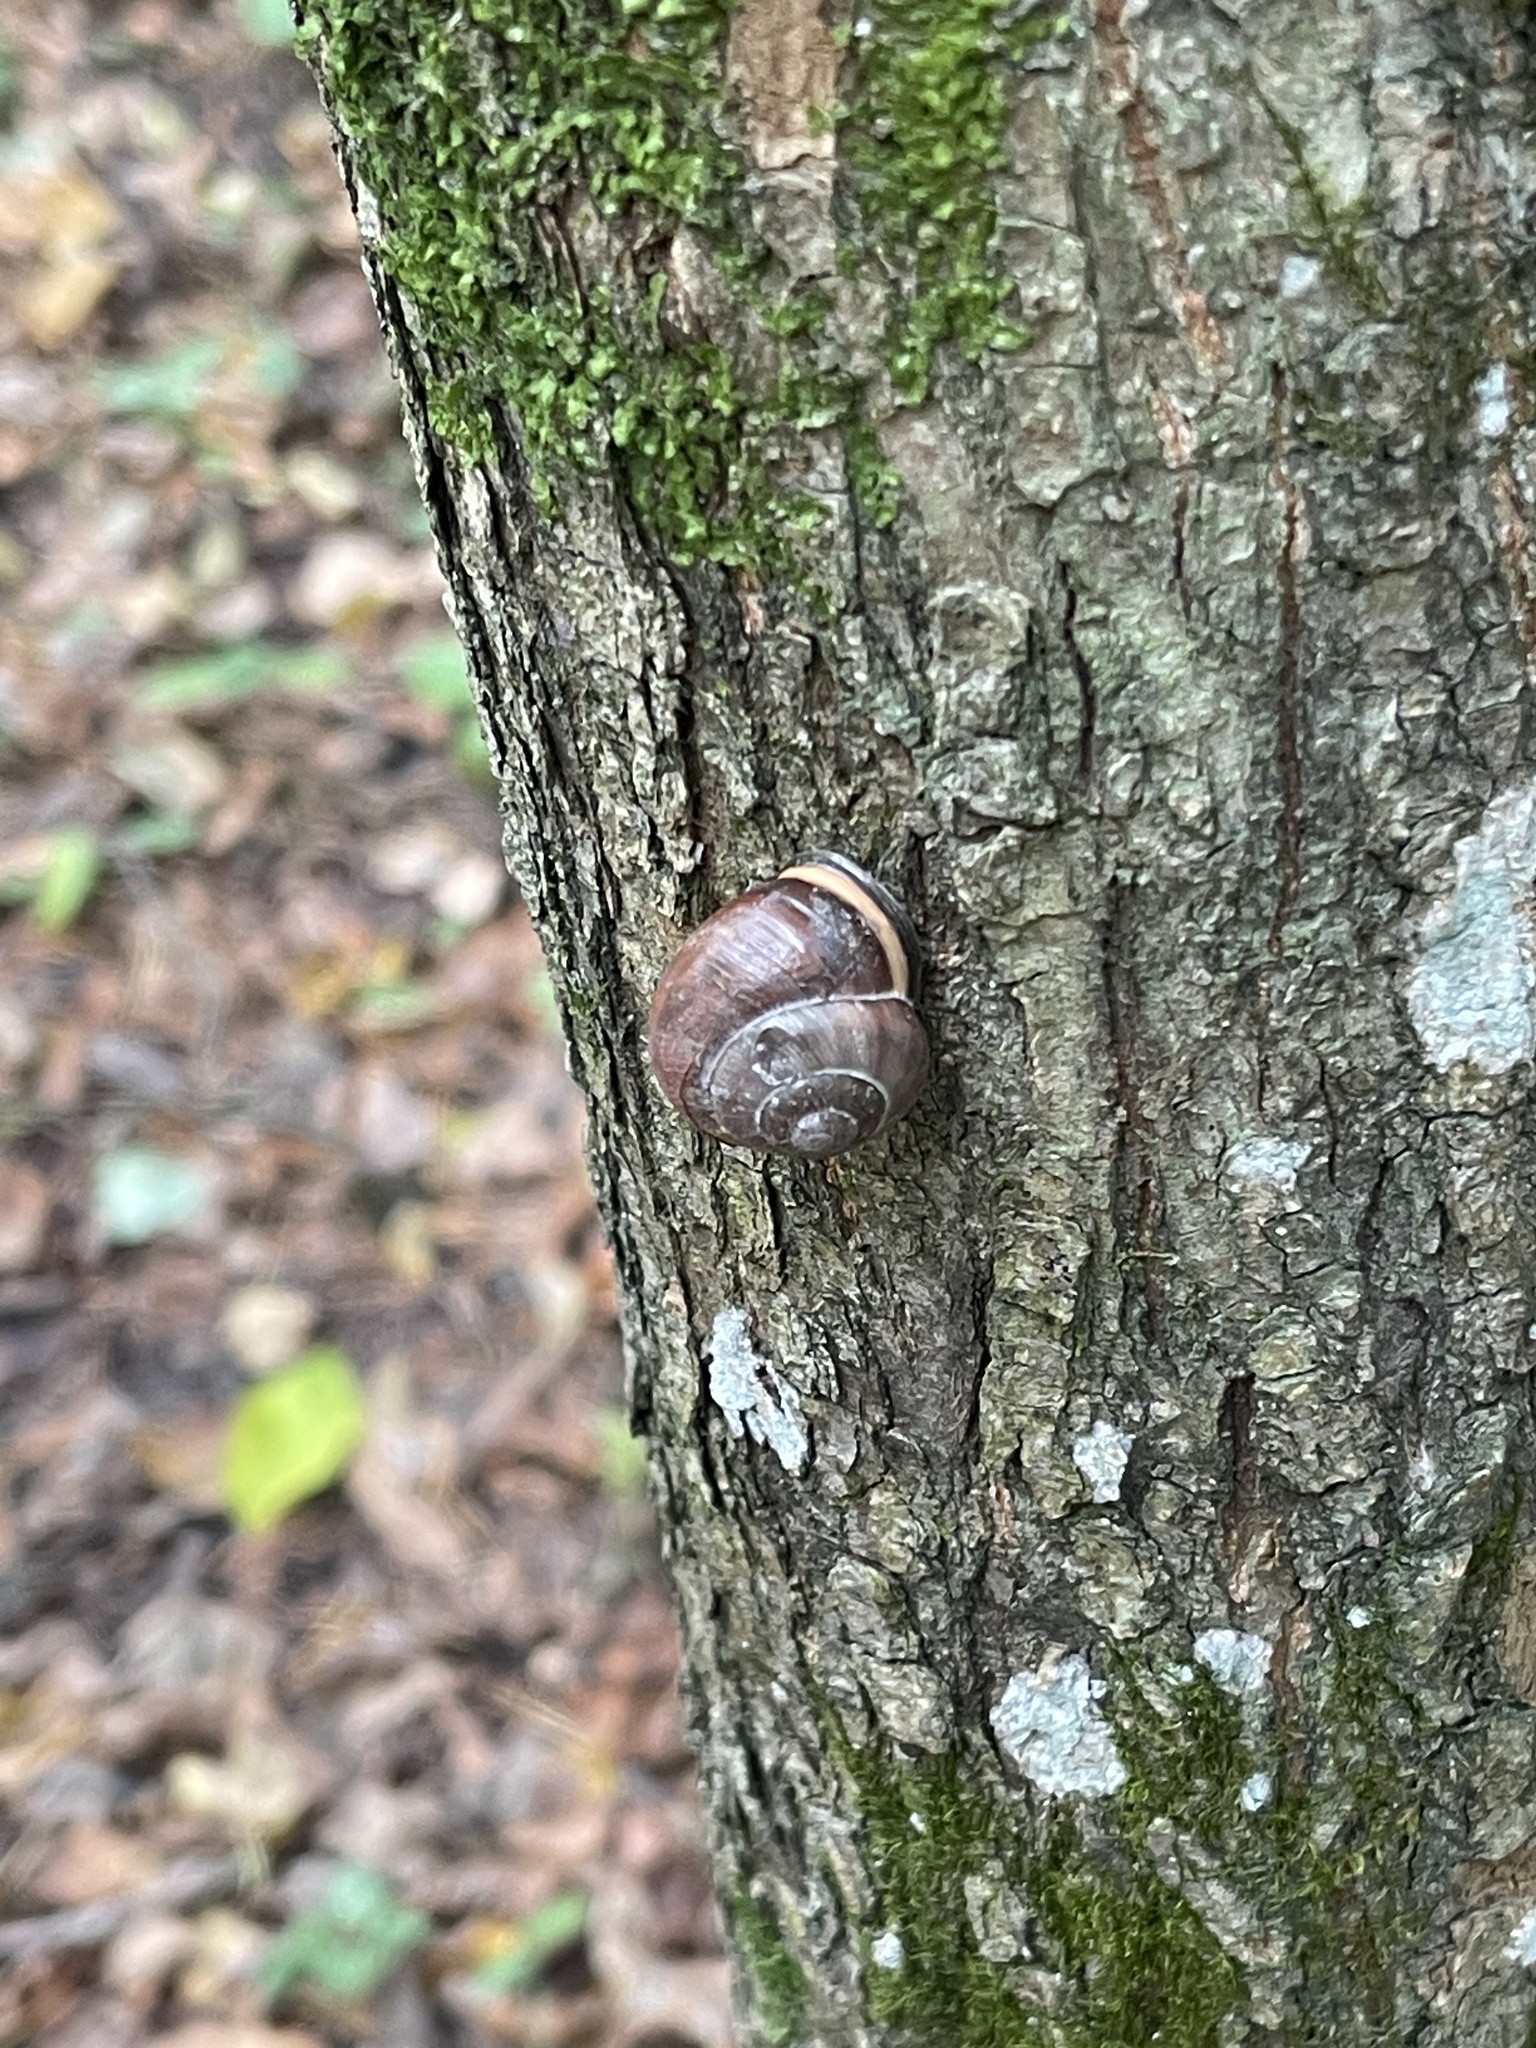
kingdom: Animalia
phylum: Mollusca
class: Gastropoda
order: Stylommatophora
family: Helicidae
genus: Cepaea
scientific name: Cepaea nemoralis
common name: Grovesnail
